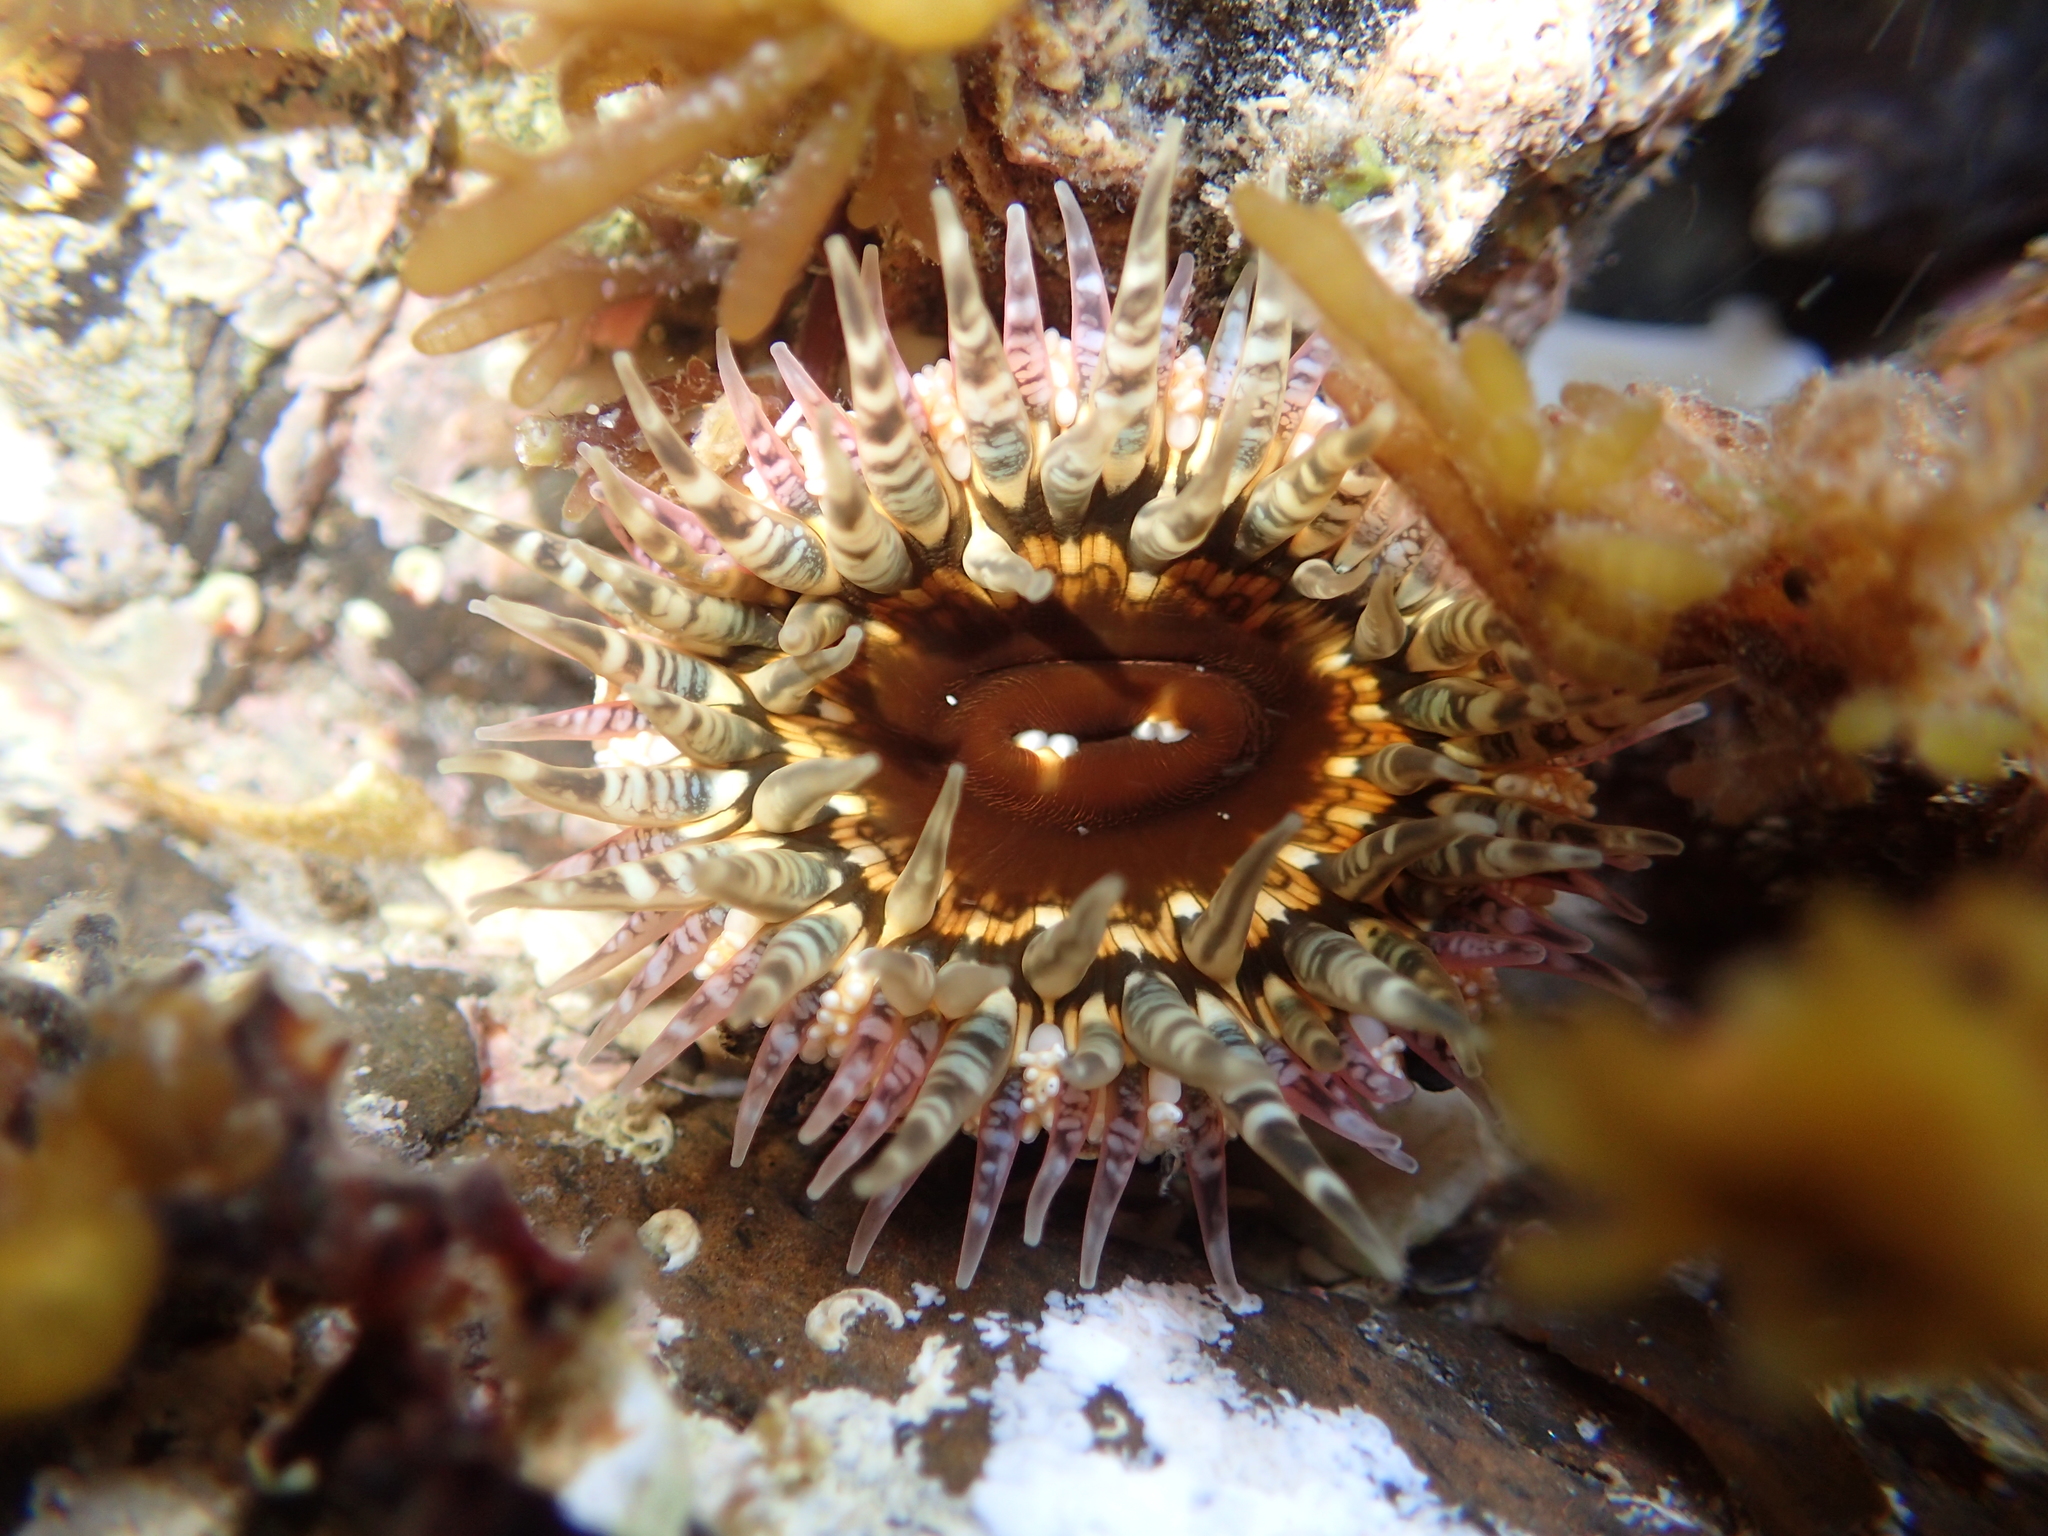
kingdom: Animalia
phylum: Cnidaria
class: Anthozoa
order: Actiniaria
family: Actiniidae
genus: Oulactis
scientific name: Oulactis muscosa
